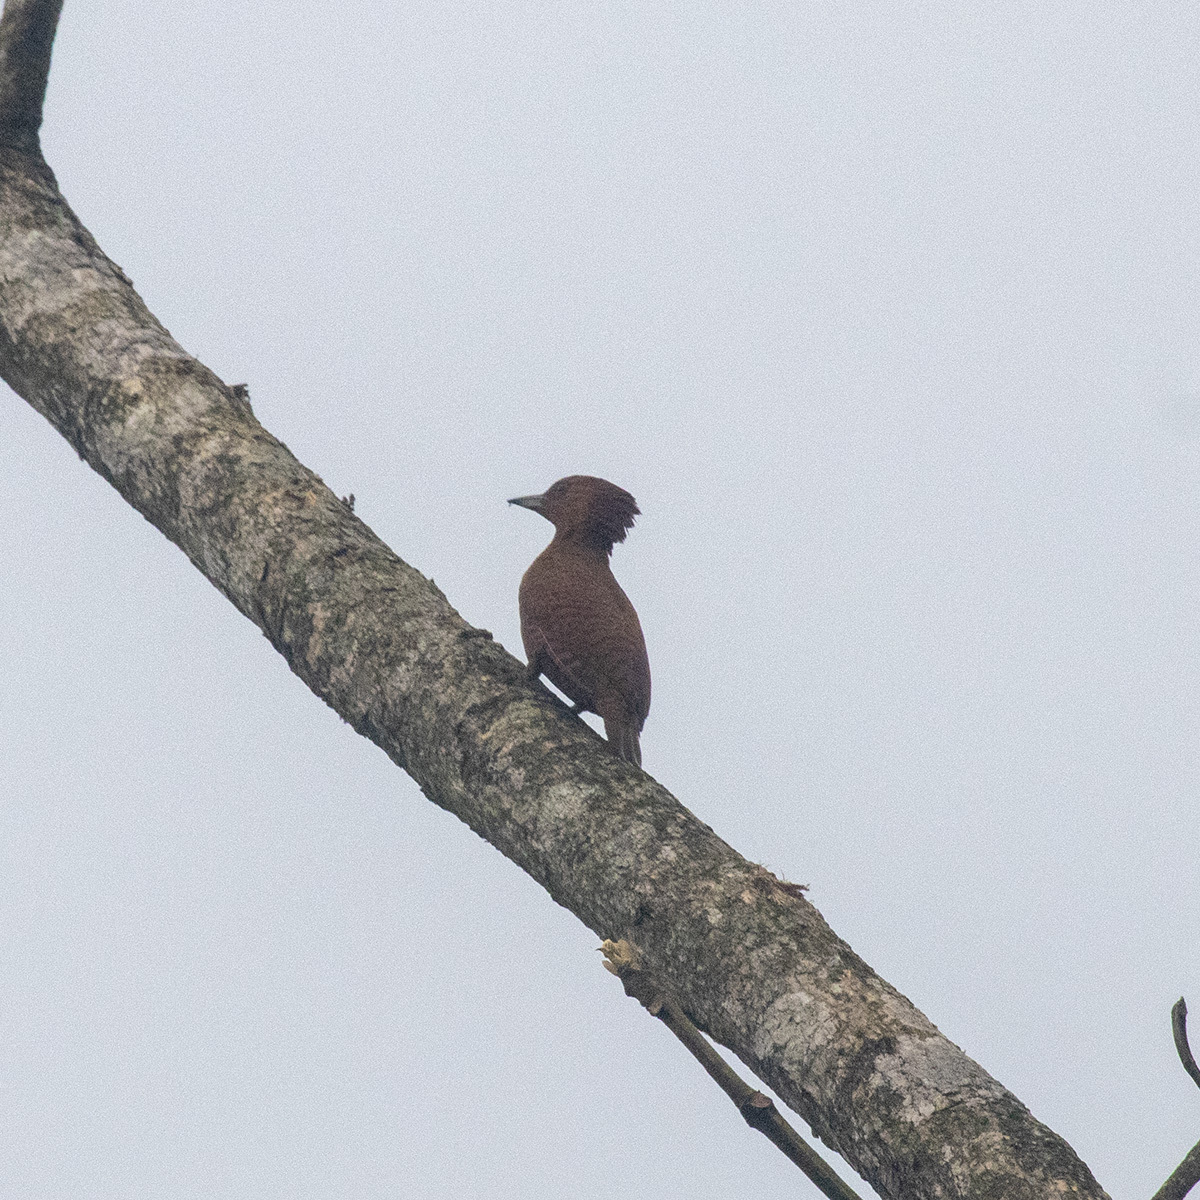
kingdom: Animalia
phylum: Chordata
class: Aves
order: Piciformes
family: Picidae
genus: Micropternus
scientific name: Micropternus brachyurus
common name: Rufous woodpecker
